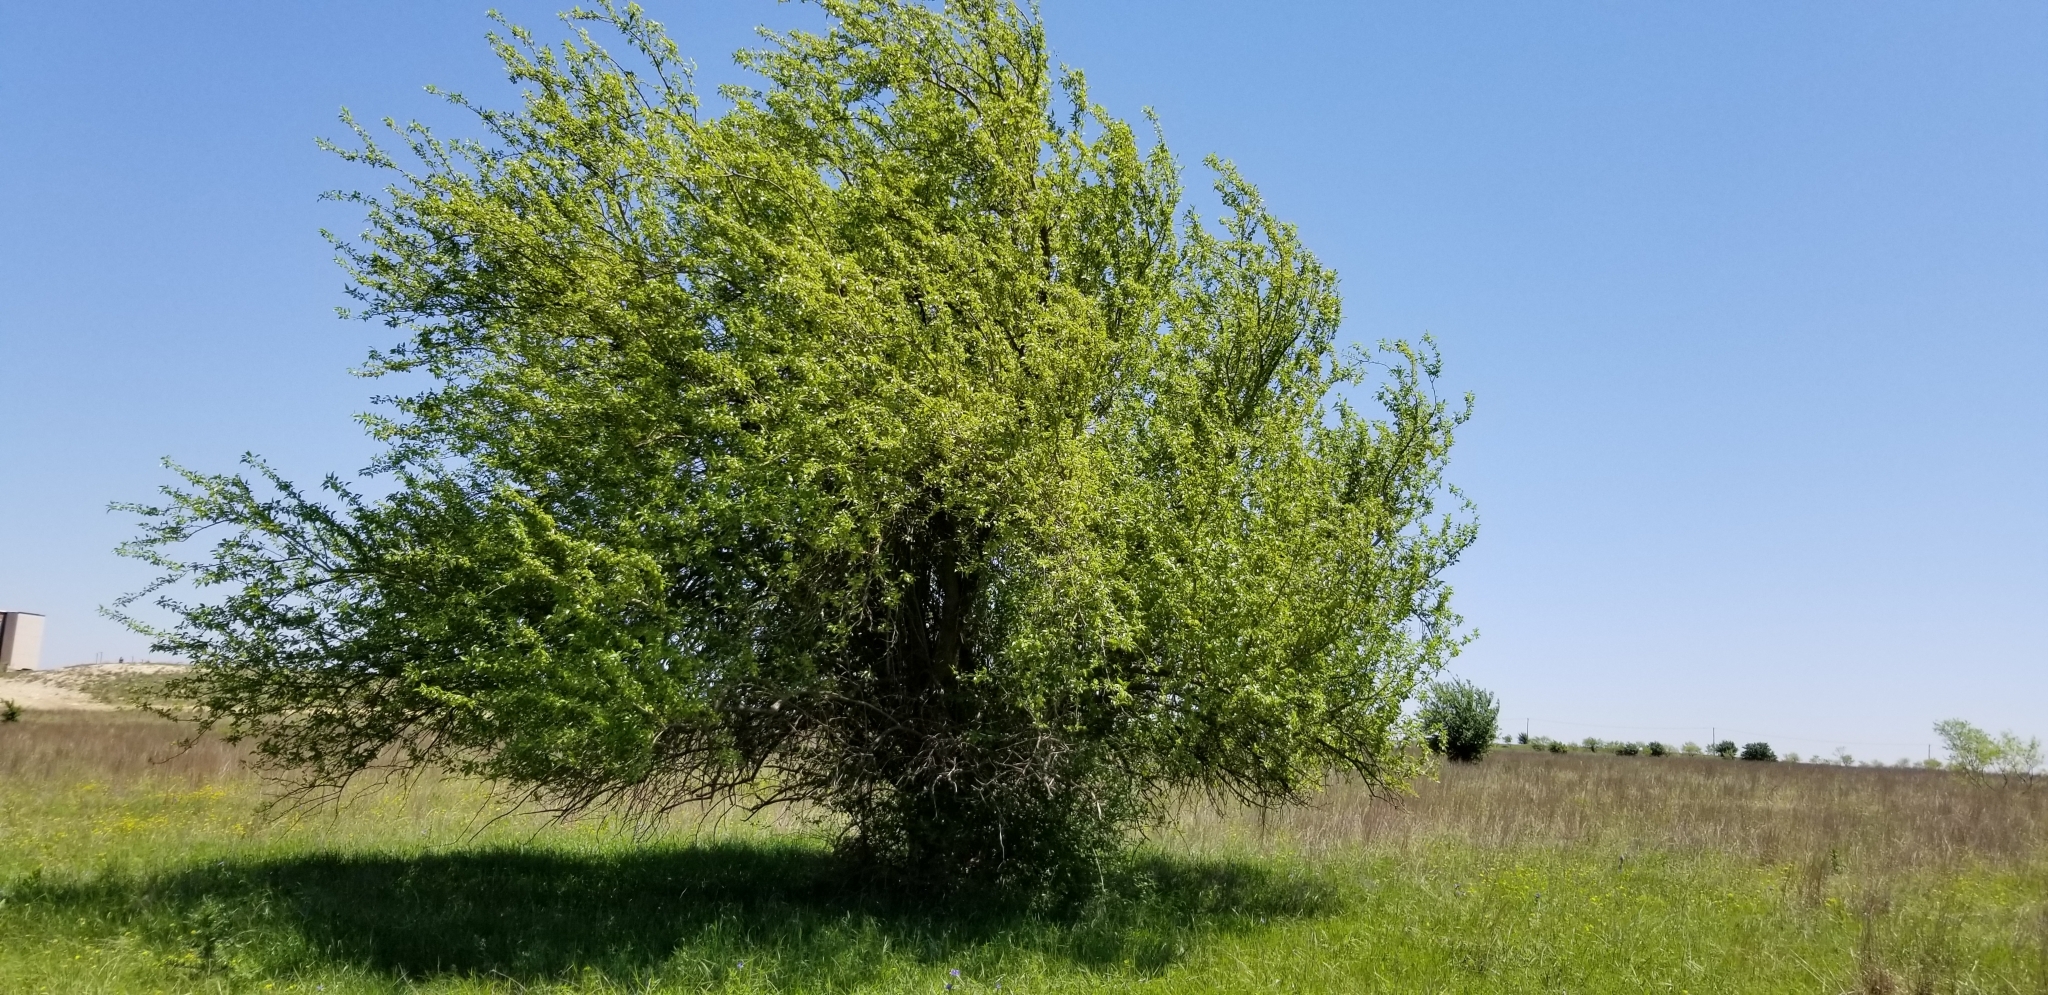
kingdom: Plantae
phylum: Tracheophyta
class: Magnoliopsida
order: Rosales
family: Moraceae
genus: Maclura
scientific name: Maclura pomifera
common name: Osage-orange
